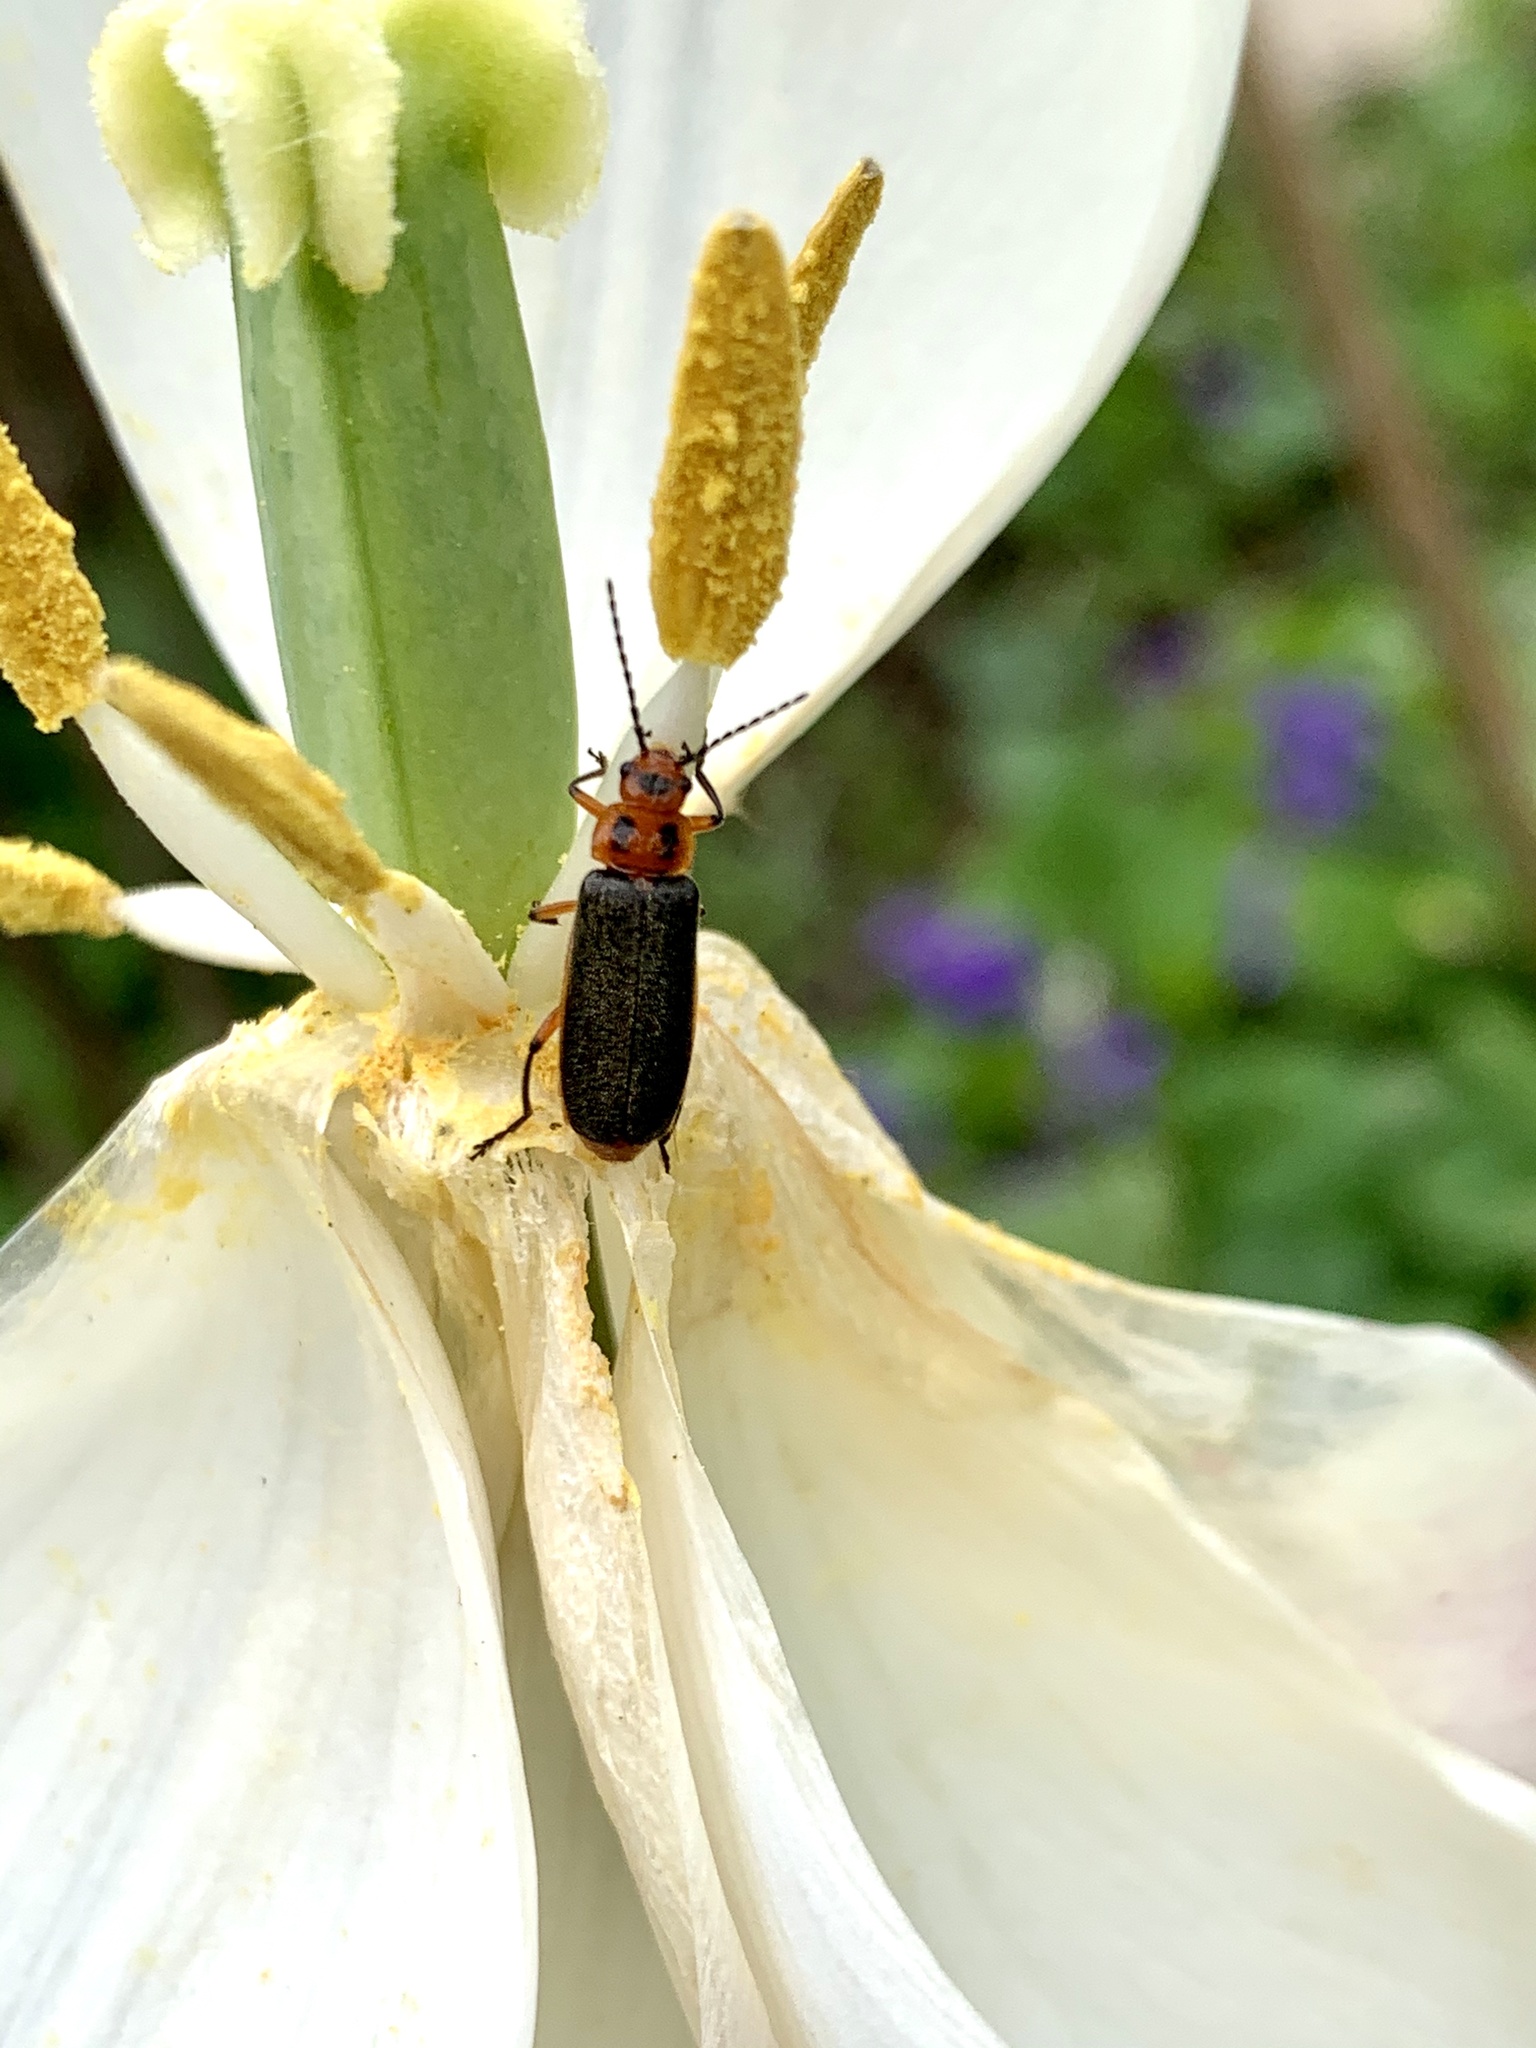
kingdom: Animalia
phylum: Arthropoda
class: Insecta
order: Coleoptera
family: Cantharidae
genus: Atalantycha
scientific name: Atalantycha bilineata
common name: Two-lined leatherwing
